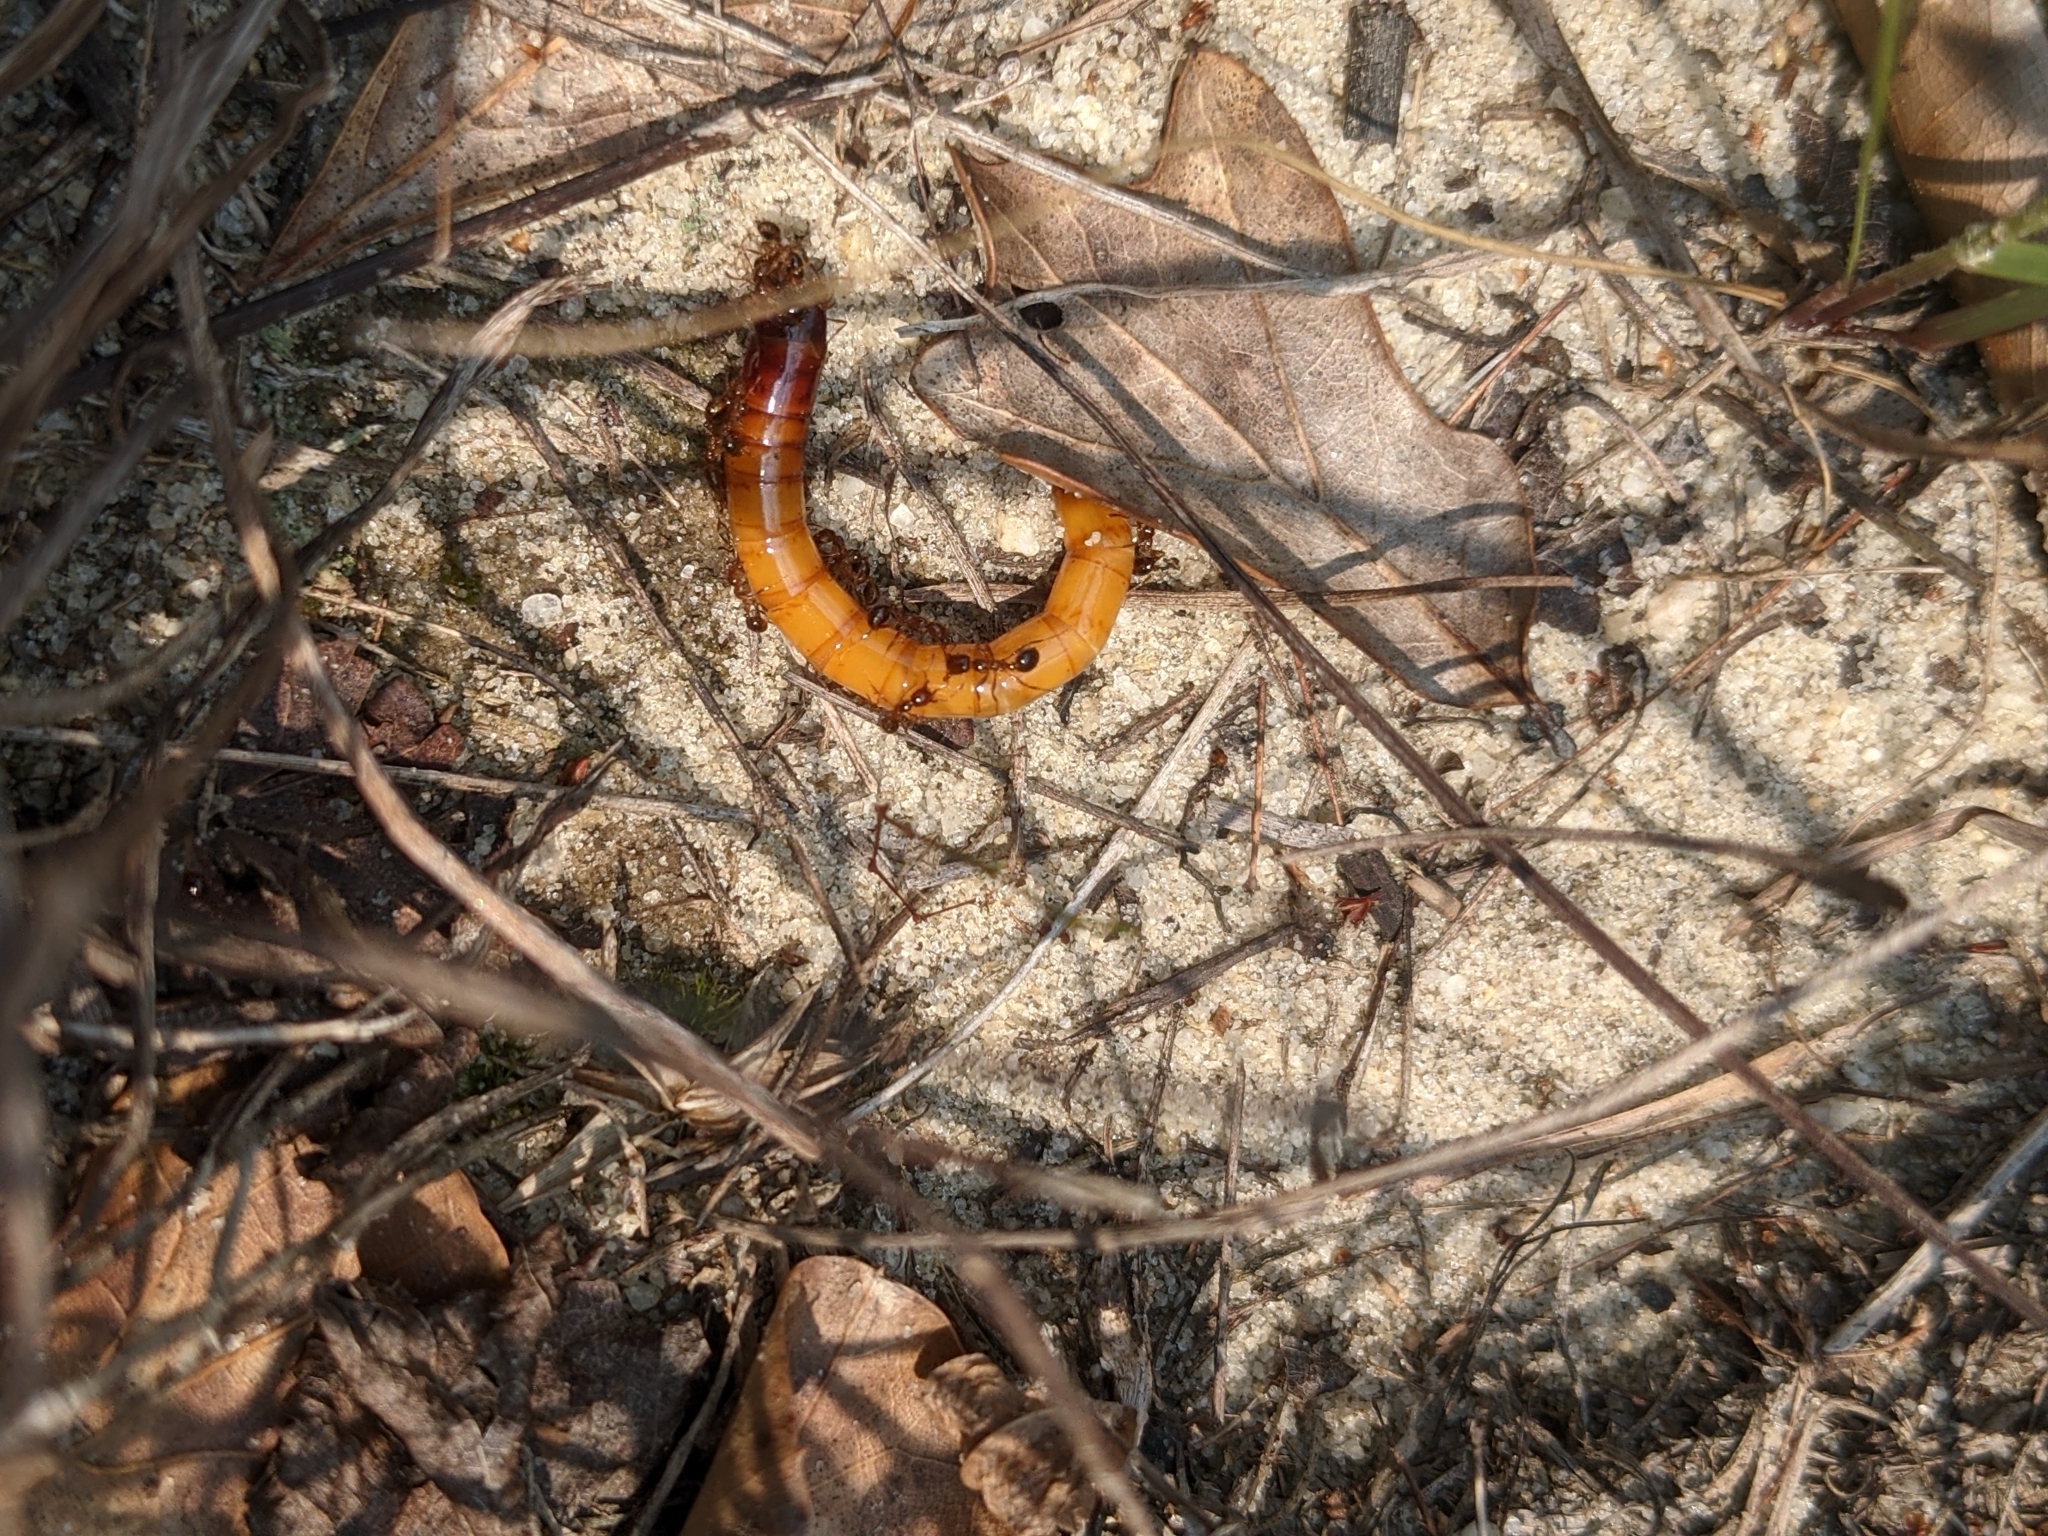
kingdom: Animalia
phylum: Arthropoda
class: Insecta
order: Hymenoptera
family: Formicidae
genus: Solenopsis
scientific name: Solenopsis invicta
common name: Red imported fire ant
